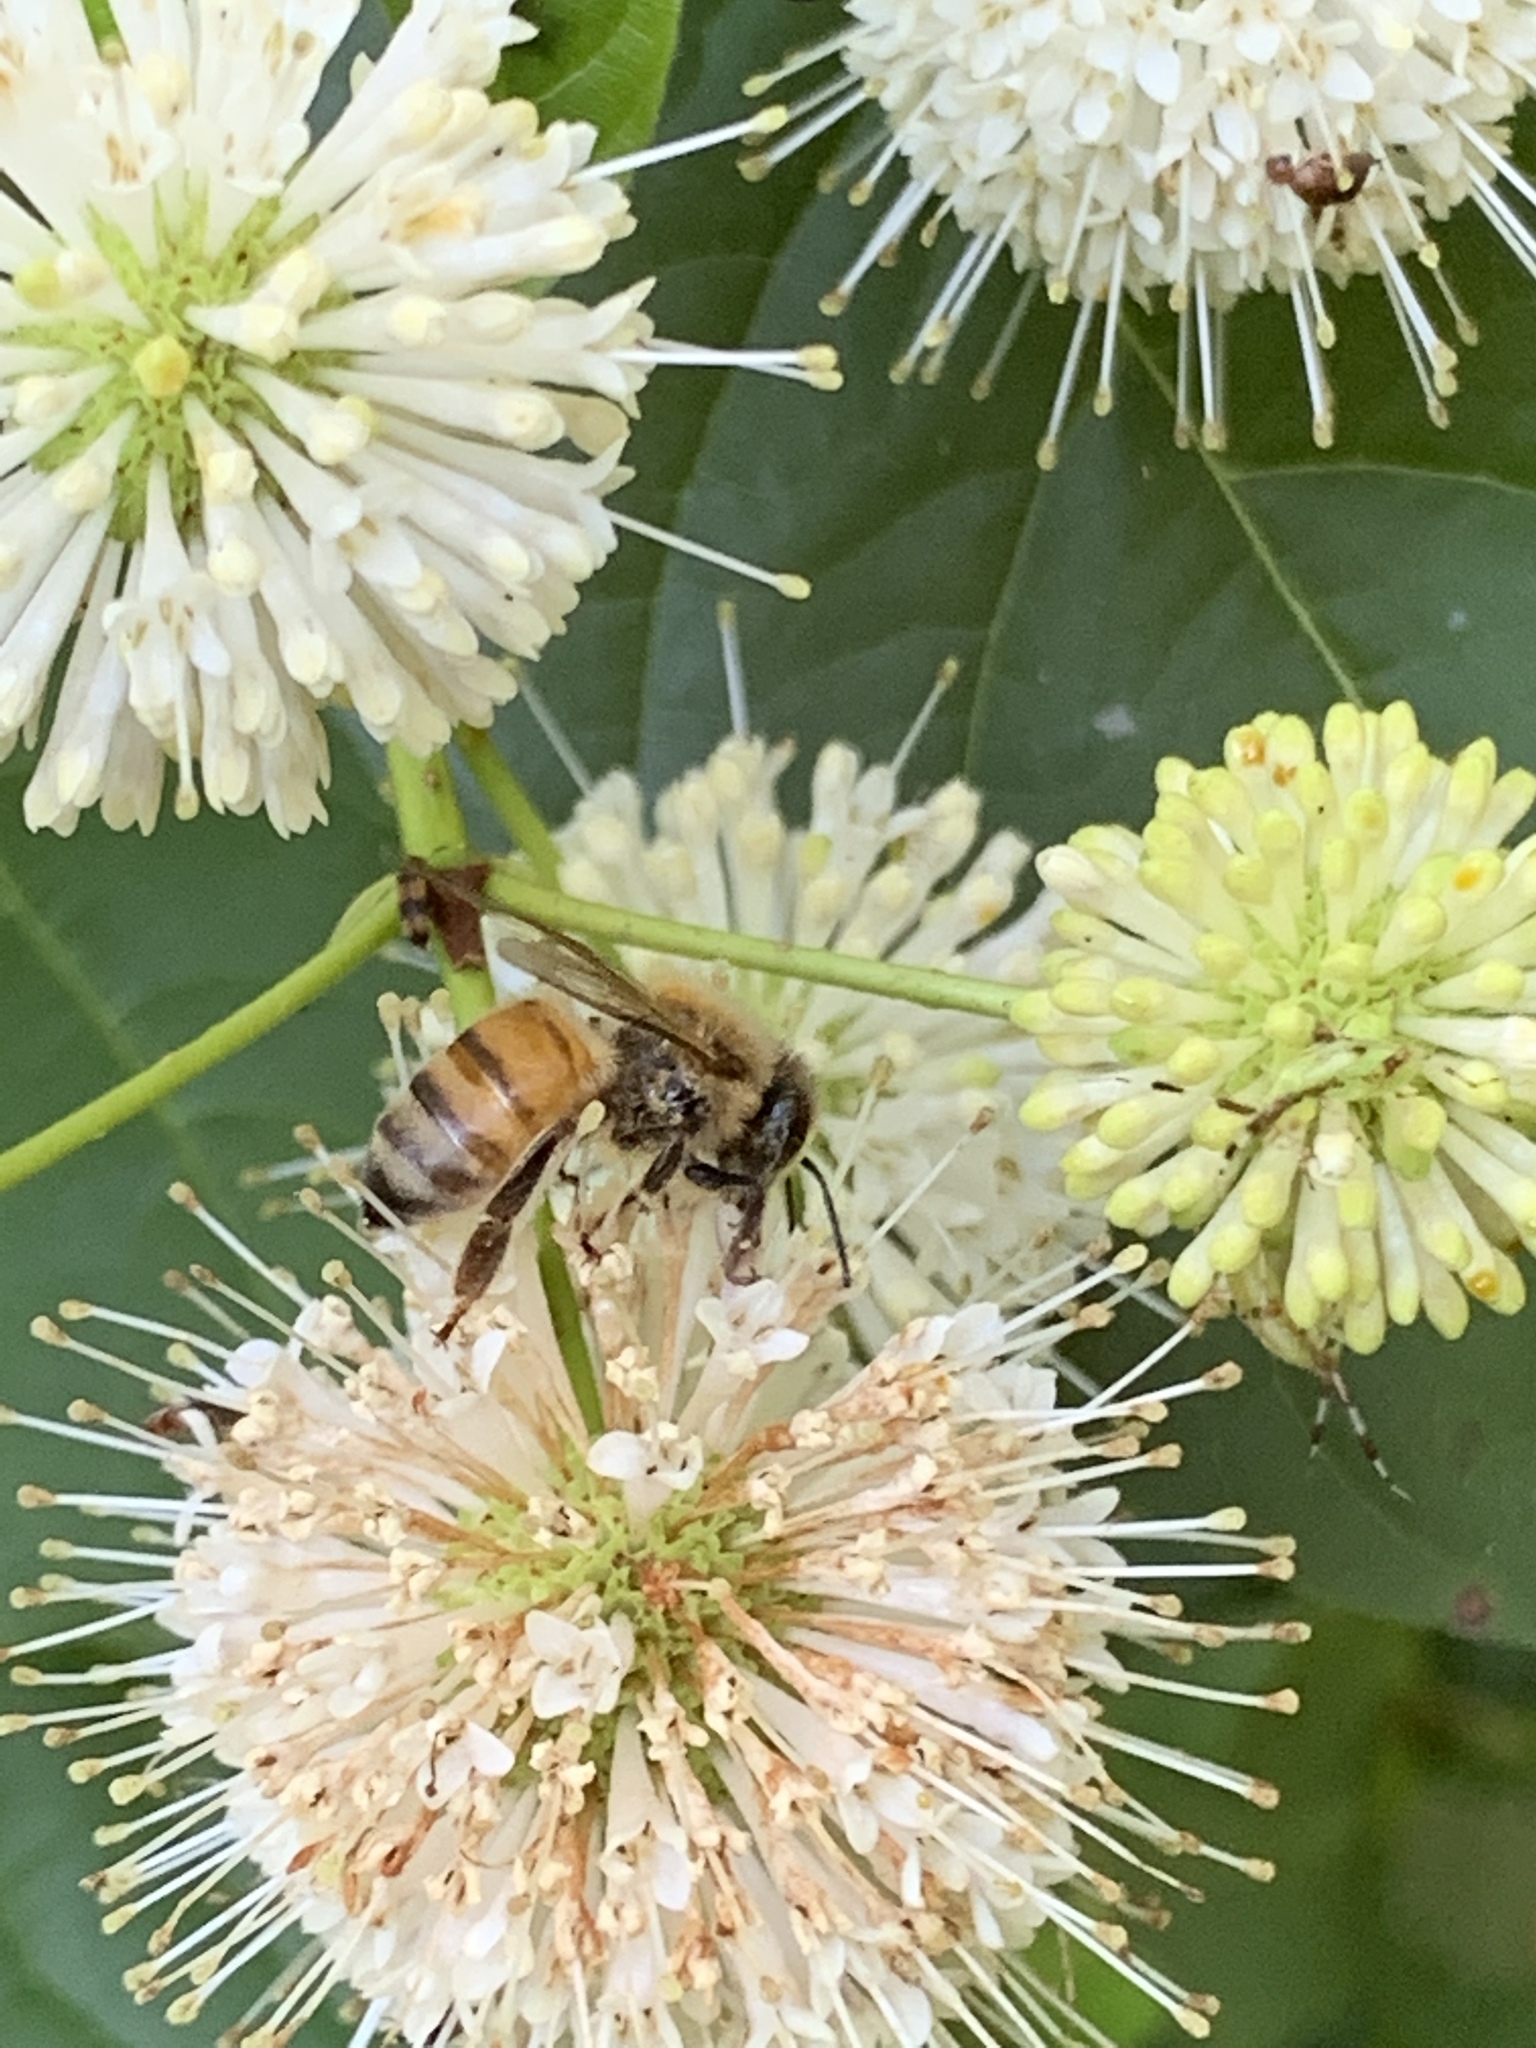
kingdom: Animalia
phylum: Arthropoda
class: Insecta
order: Hymenoptera
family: Apidae
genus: Apis
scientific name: Apis mellifera
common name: Honey bee
